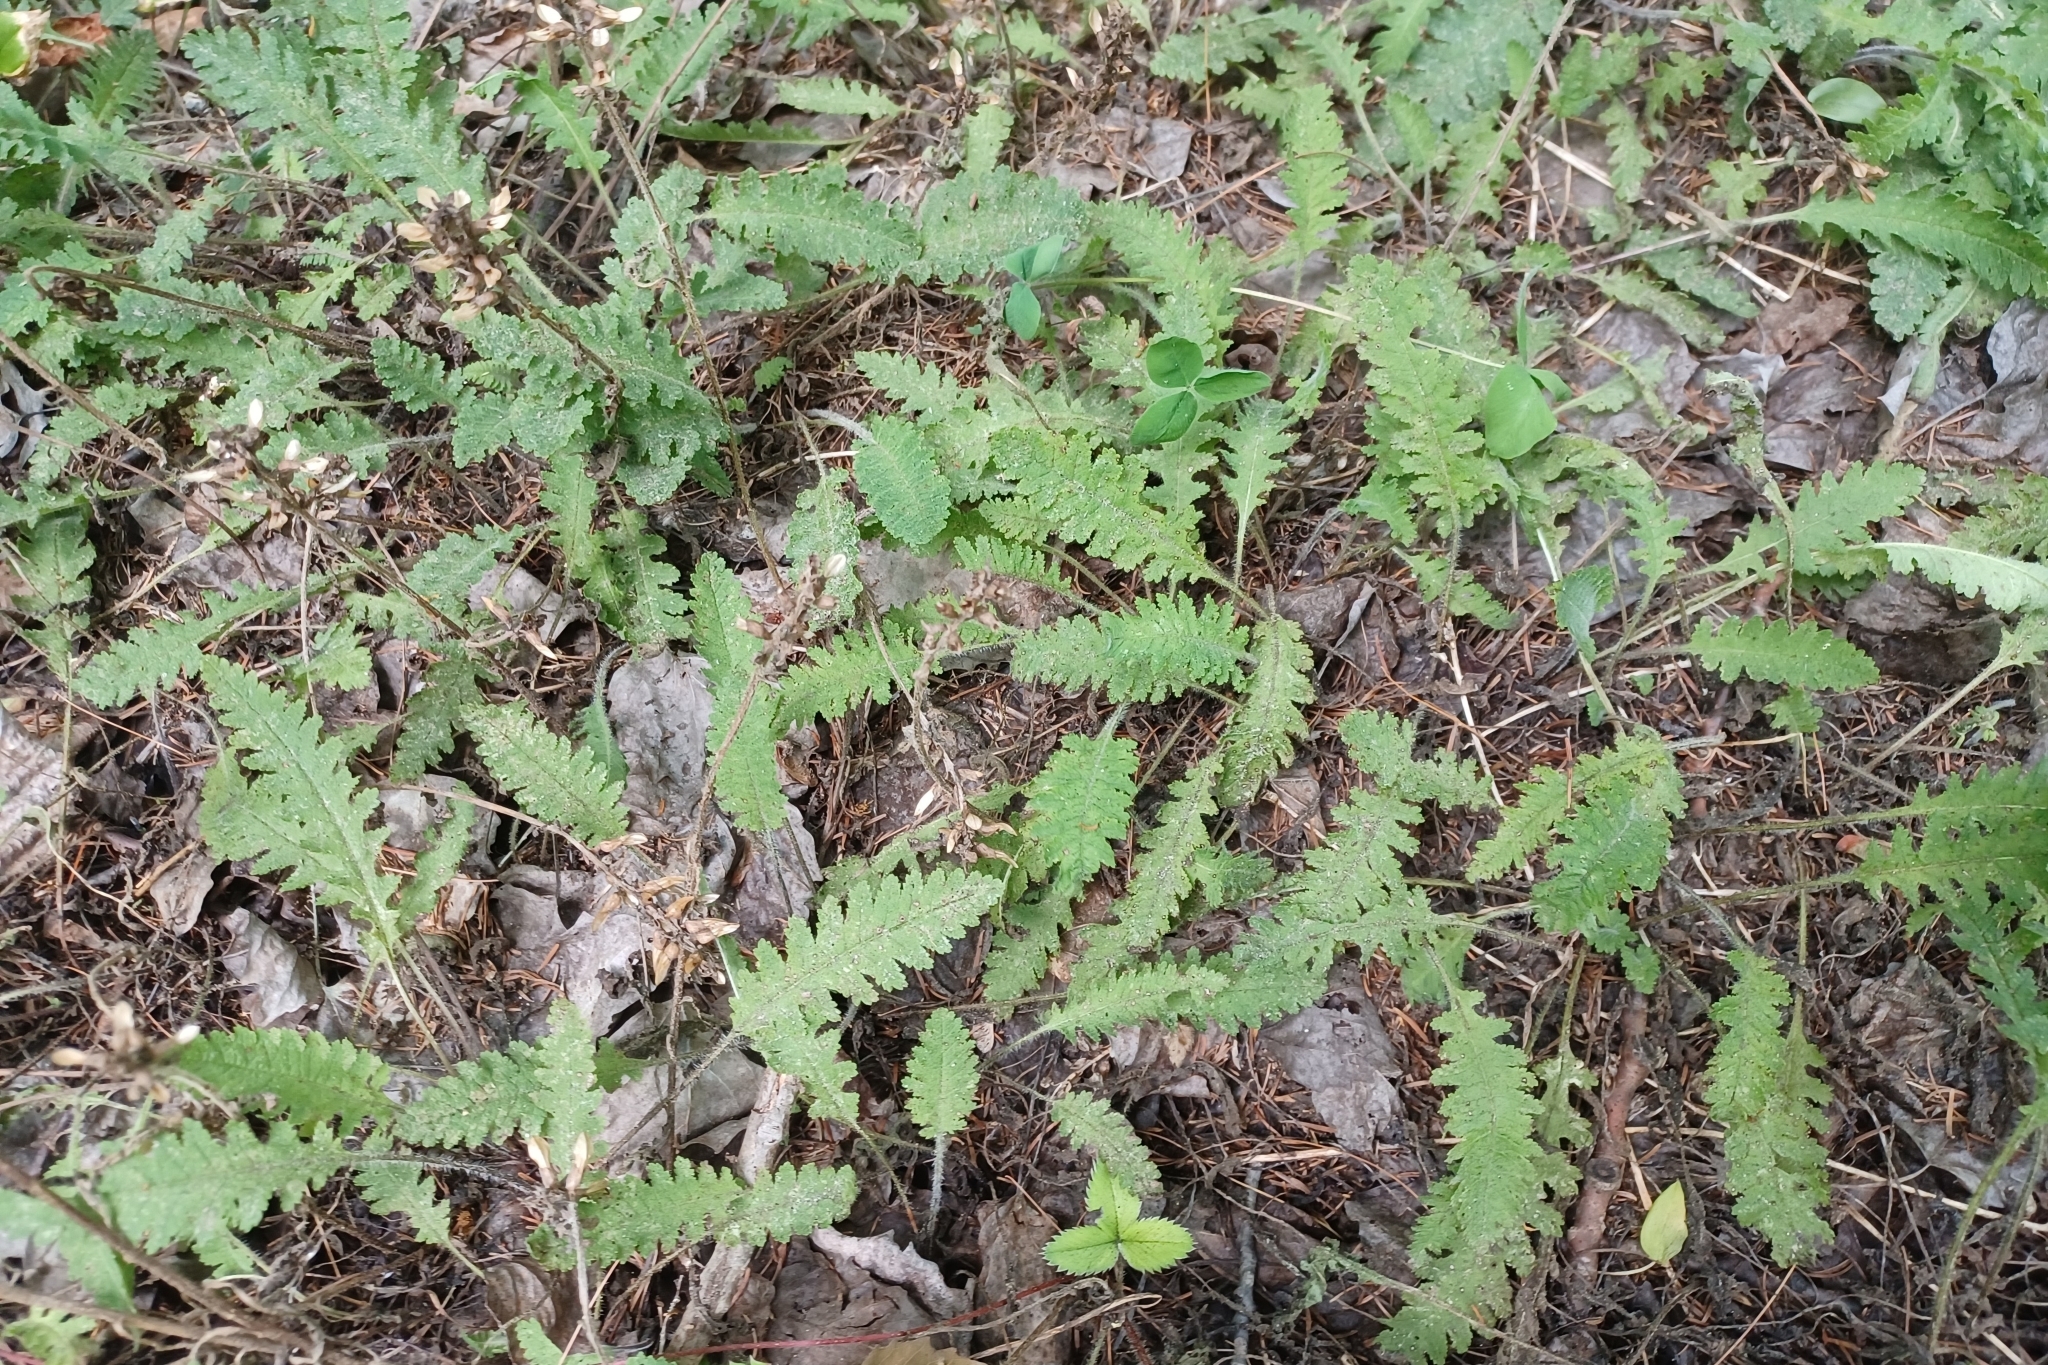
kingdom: Plantae
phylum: Tracheophyta
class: Magnoliopsida
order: Lamiales
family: Orobanchaceae
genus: Pedicularis
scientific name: Pedicularis canadensis
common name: Early lousewort
